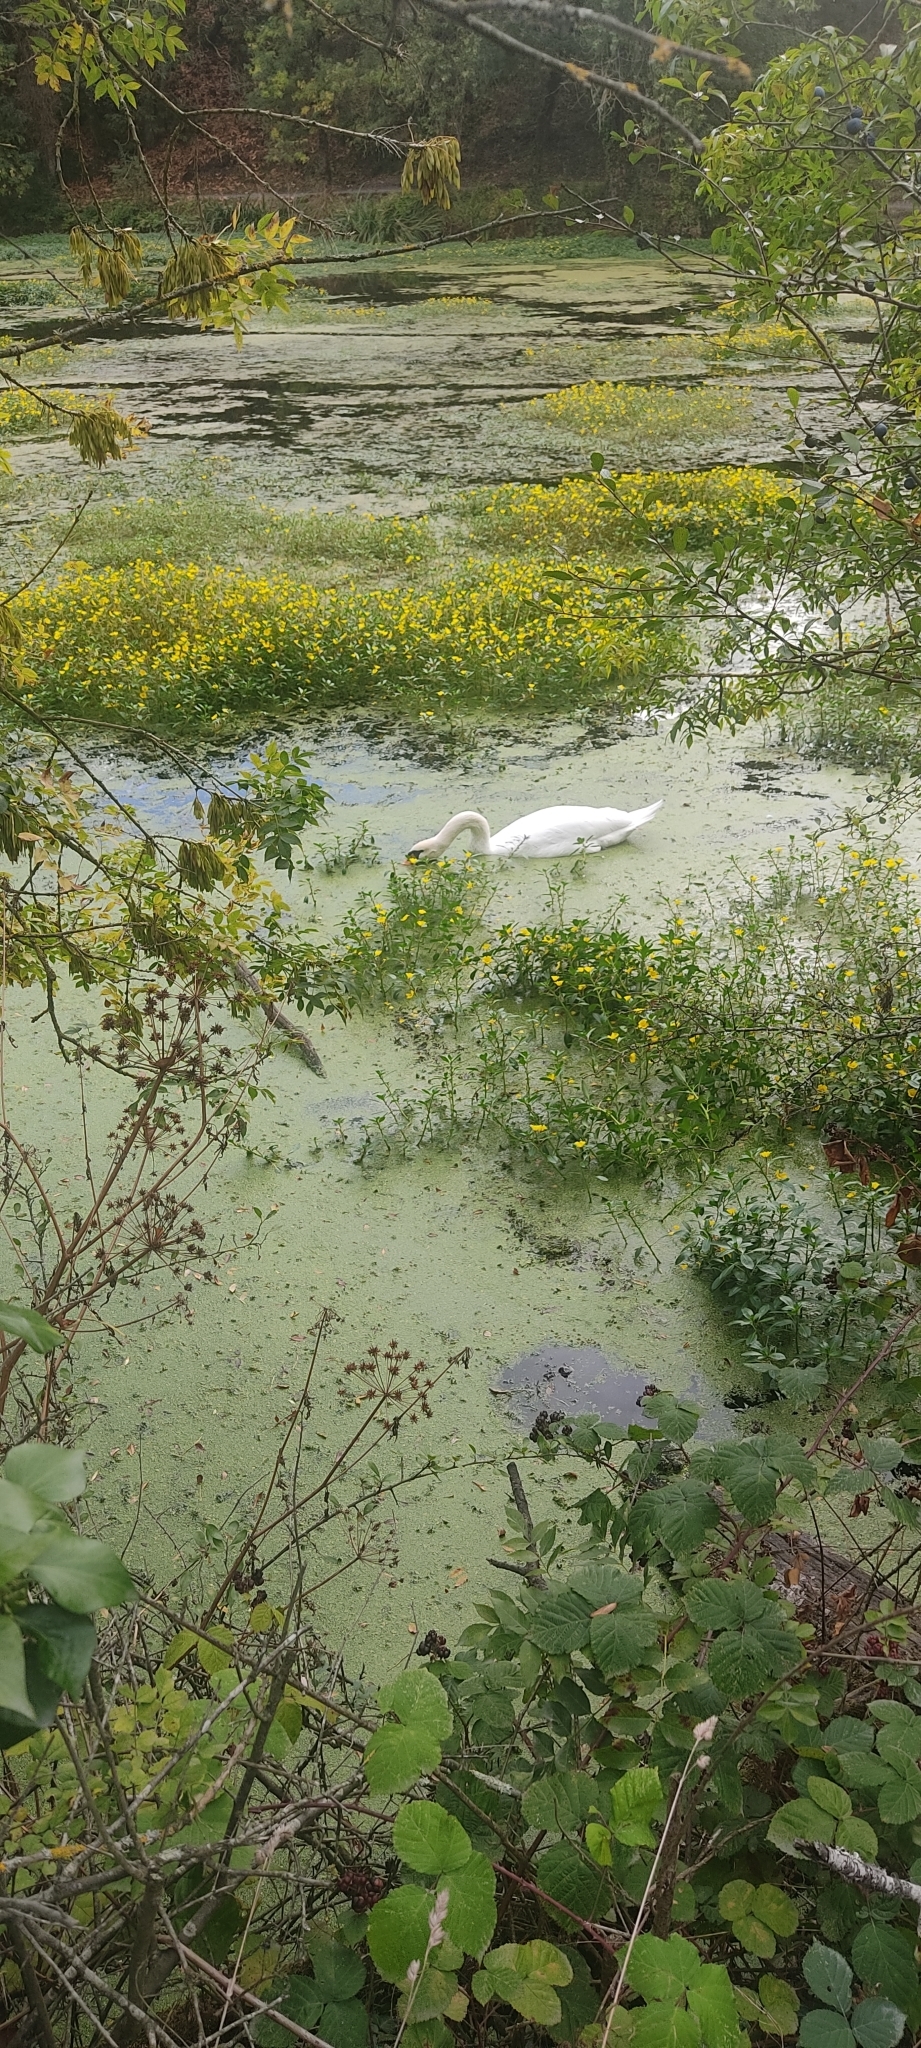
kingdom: Animalia
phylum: Chordata
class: Aves
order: Anseriformes
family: Anatidae
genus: Cygnus
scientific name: Cygnus olor
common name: Mute swan
